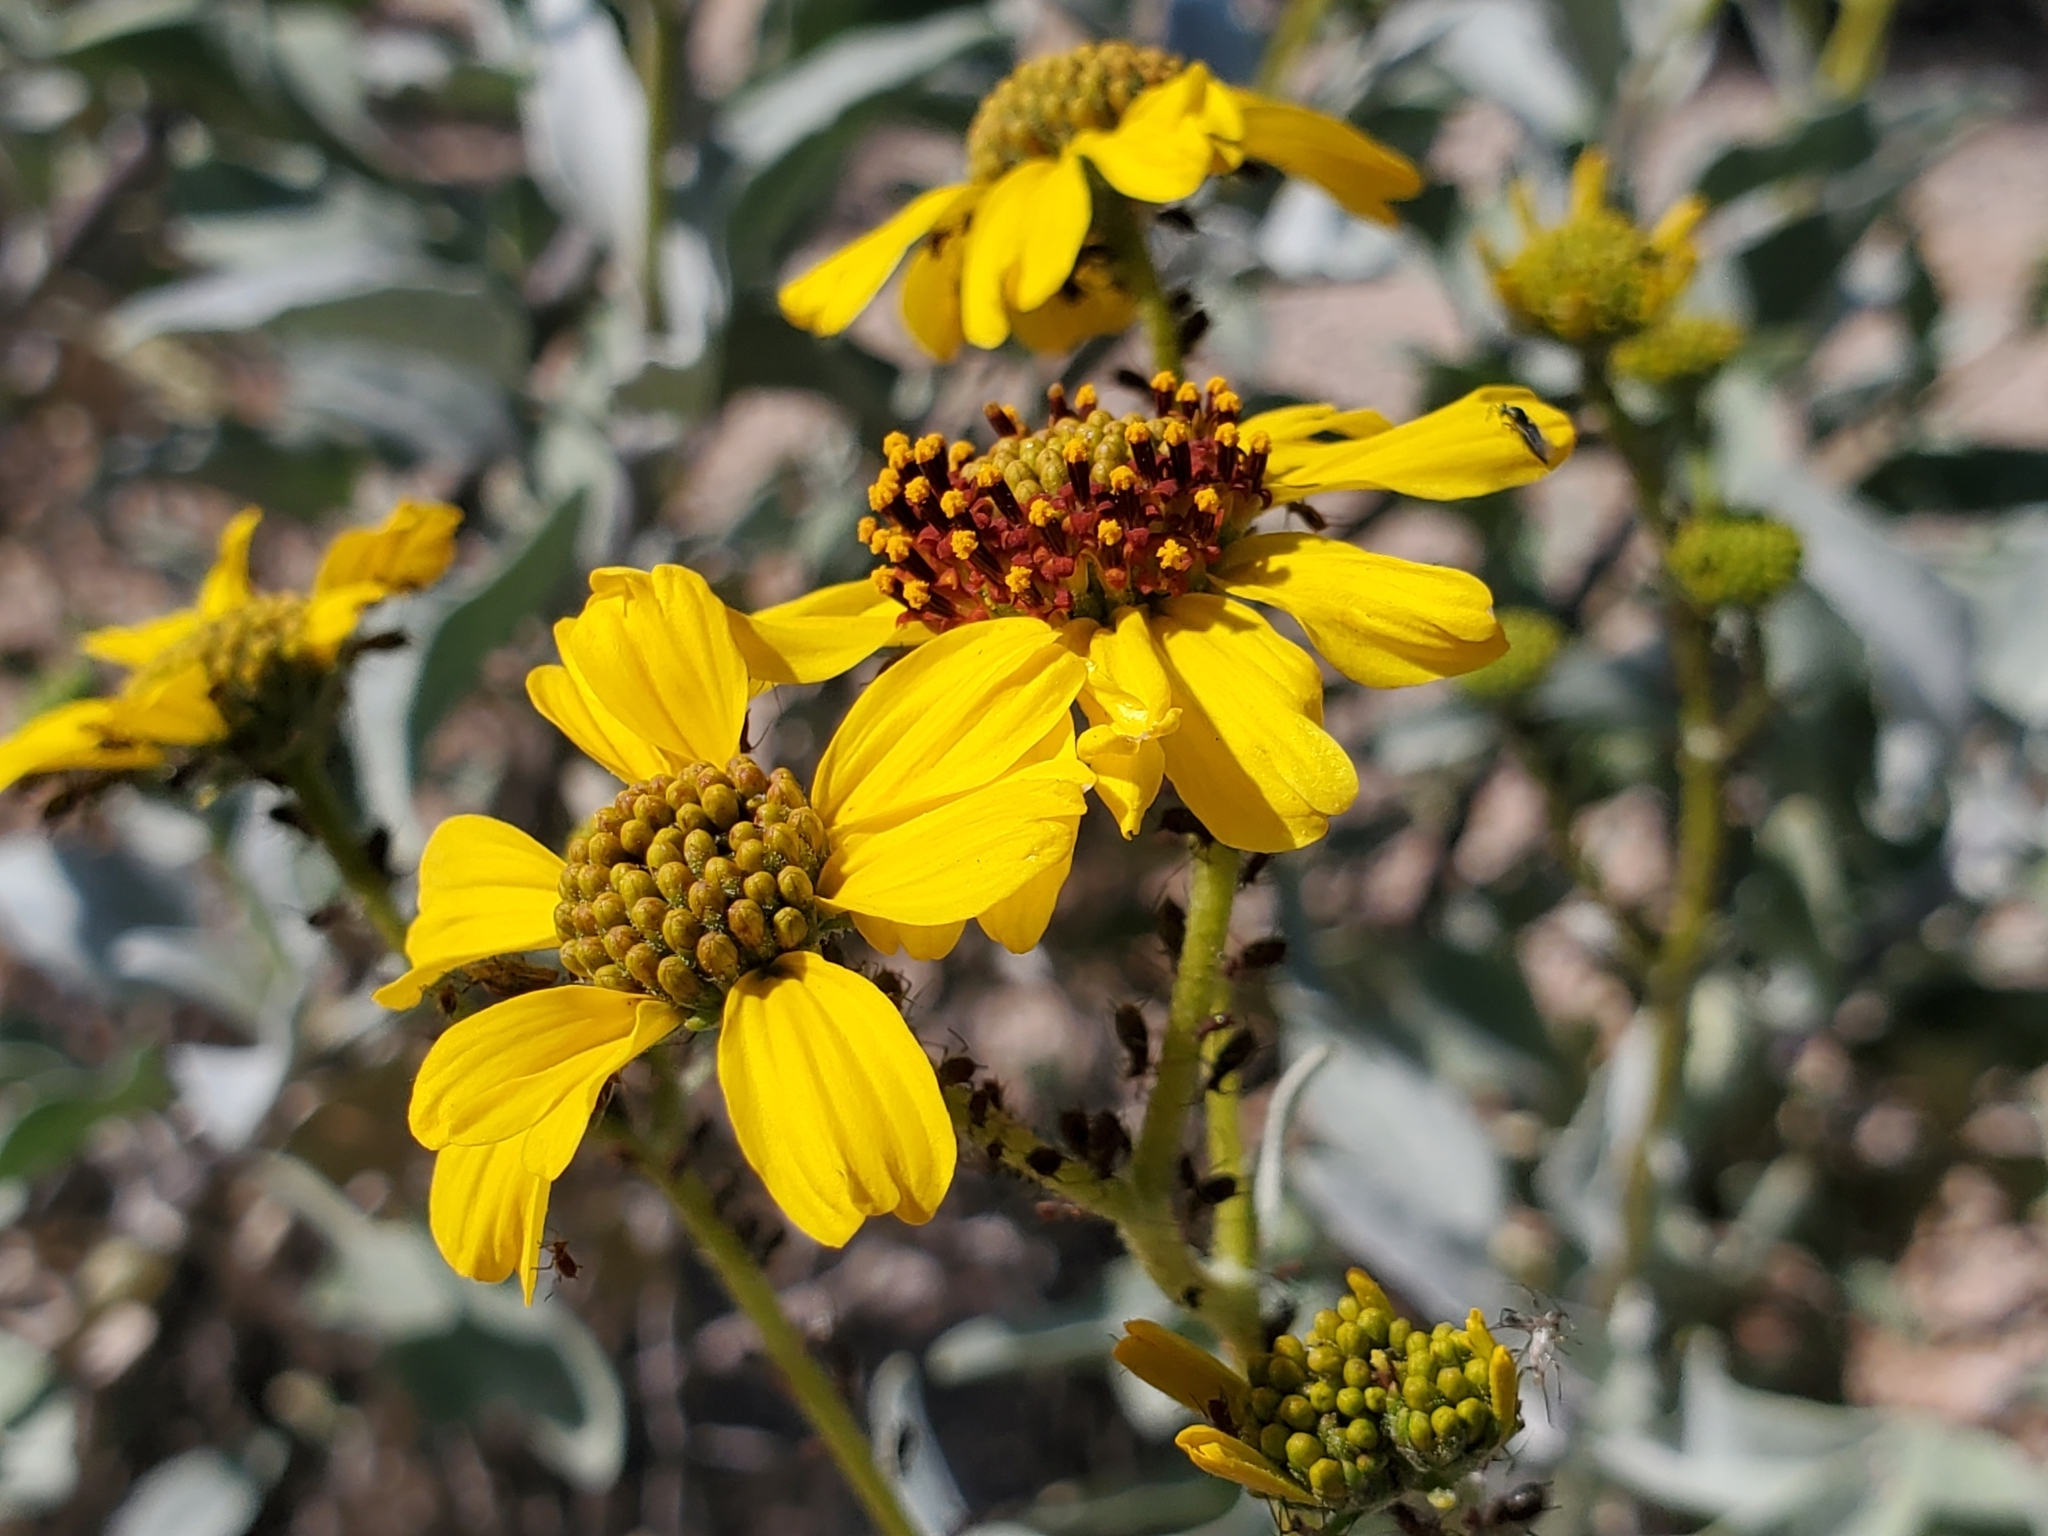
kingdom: Plantae
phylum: Tracheophyta
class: Magnoliopsida
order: Asterales
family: Asteraceae
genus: Encelia
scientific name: Encelia farinosa
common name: Brittlebush
